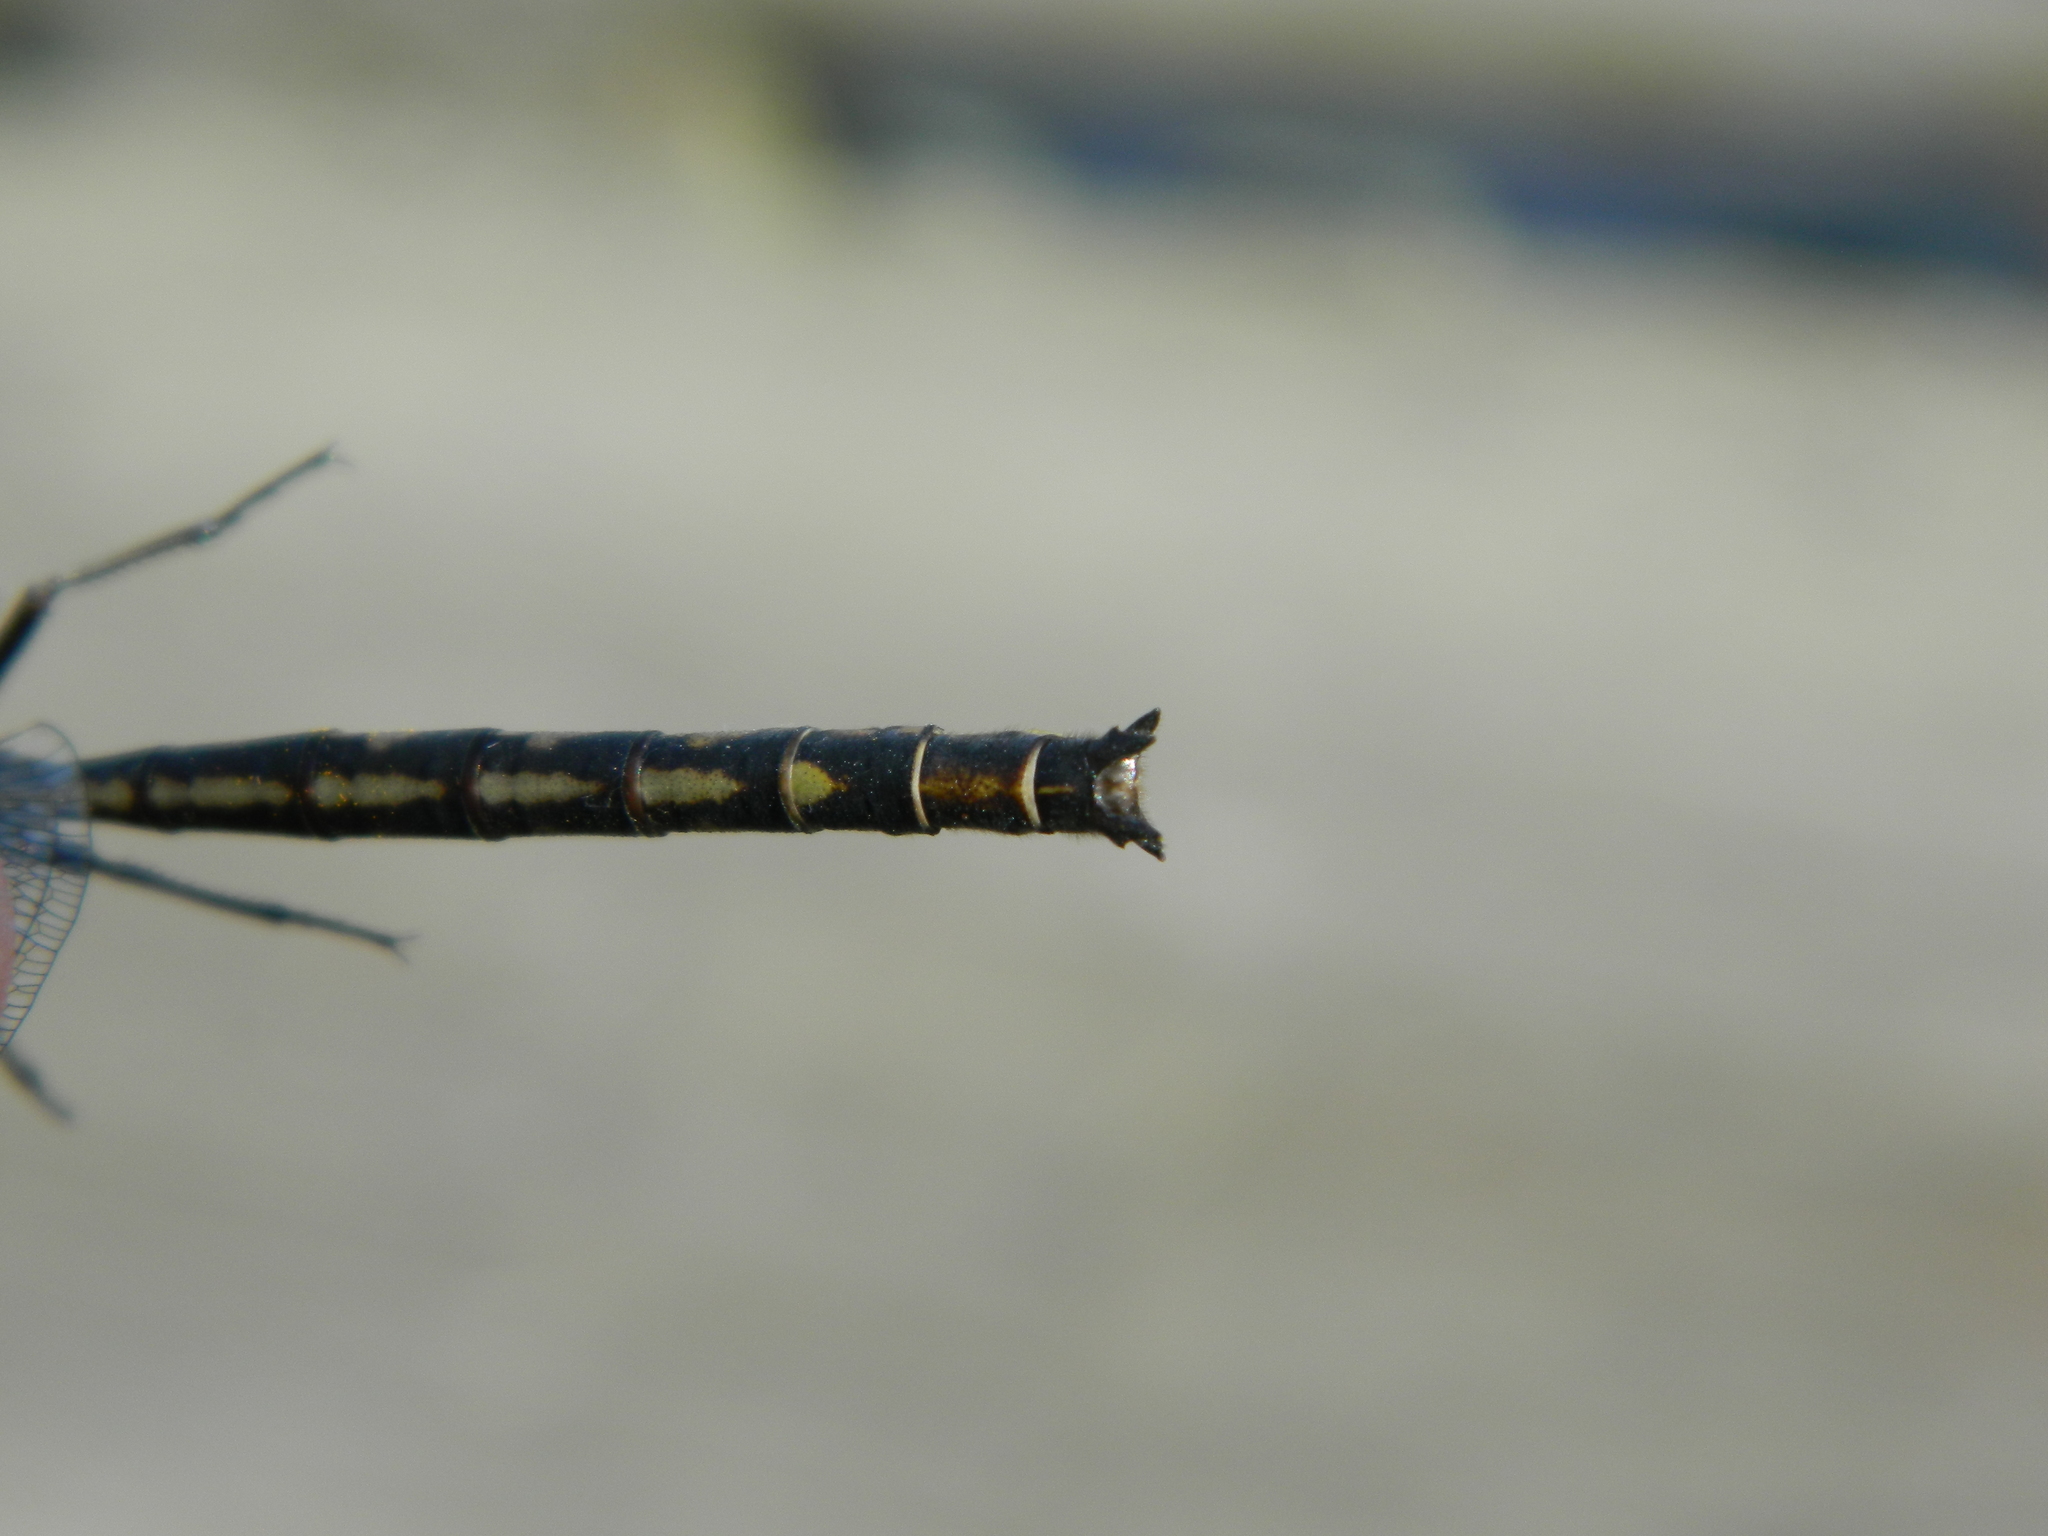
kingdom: Animalia
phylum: Arthropoda
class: Insecta
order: Odonata
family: Gomphidae
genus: Phanogomphus
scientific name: Phanogomphus spicatus
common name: Dusky clubtail
